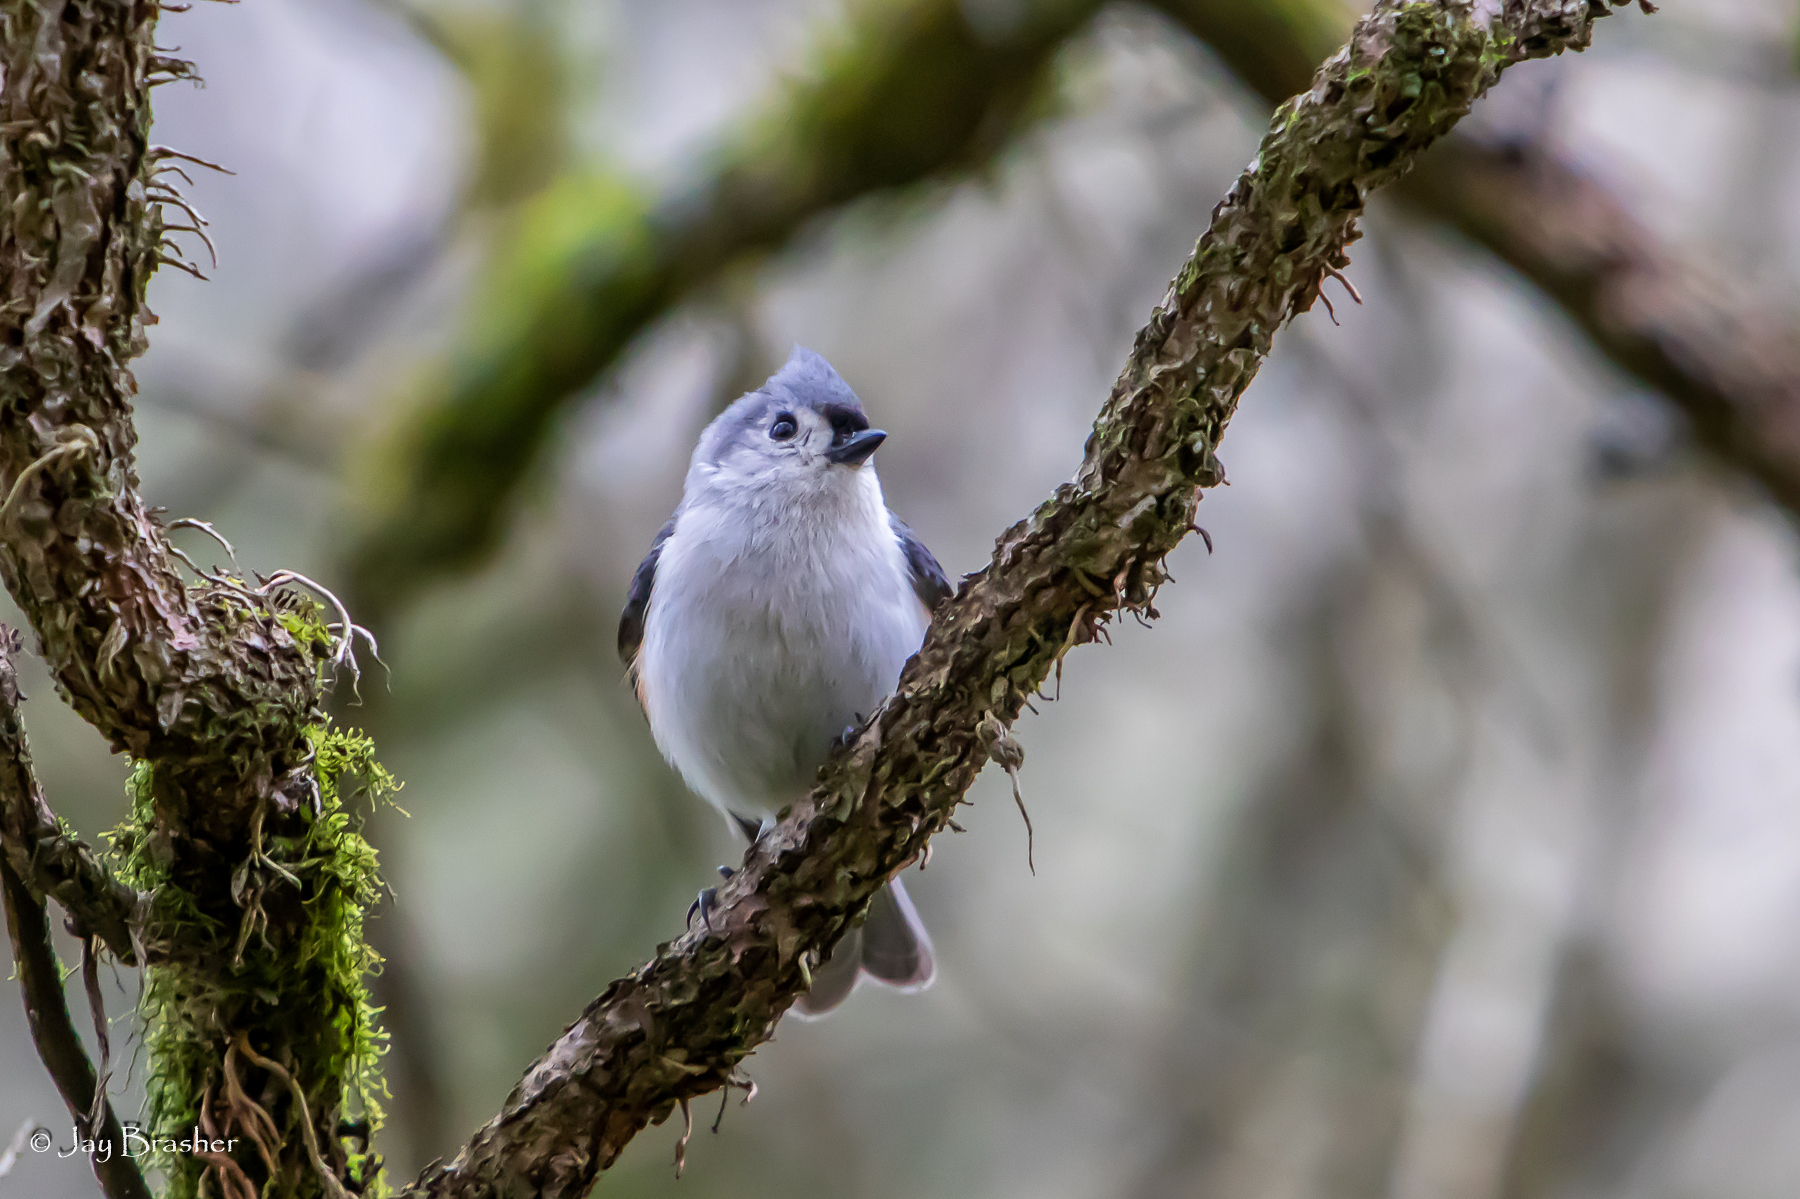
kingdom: Animalia
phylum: Chordata
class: Aves
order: Passeriformes
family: Paridae
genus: Baeolophus
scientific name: Baeolophus bicolor
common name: Tufted titmouse
